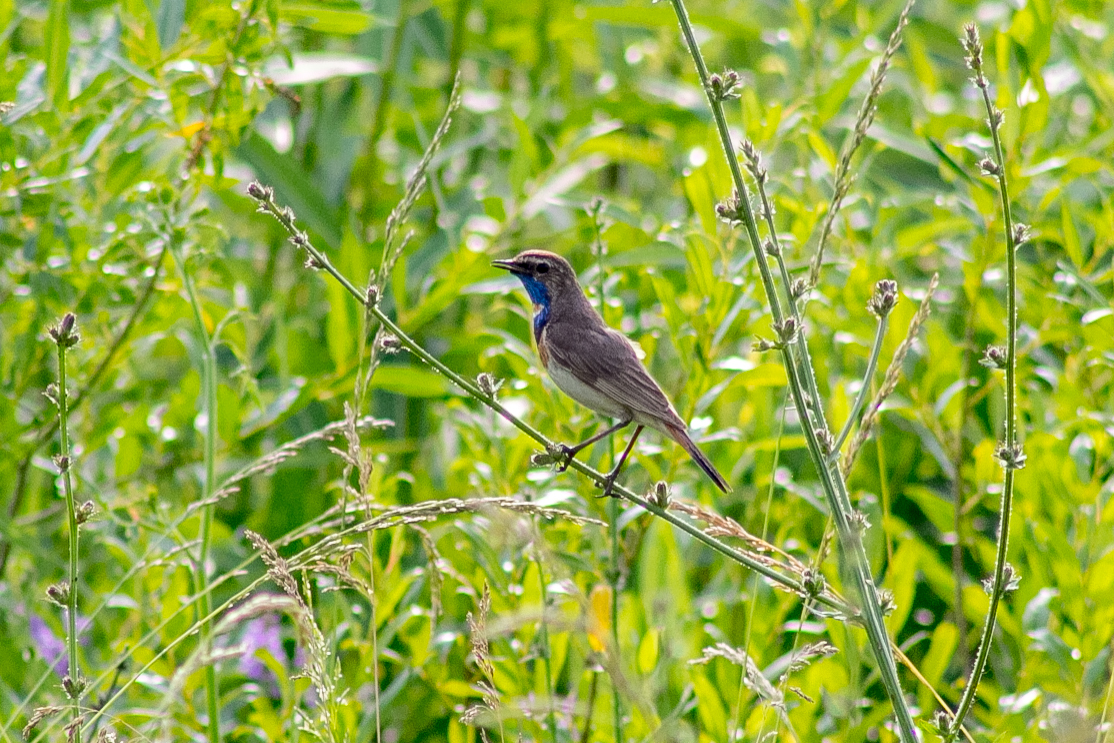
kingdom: Animalia
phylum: Chordata
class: Aves
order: Passeriformes
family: Muscicapidae
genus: Luscinia
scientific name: Luscinia svecica
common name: Bluethroat
